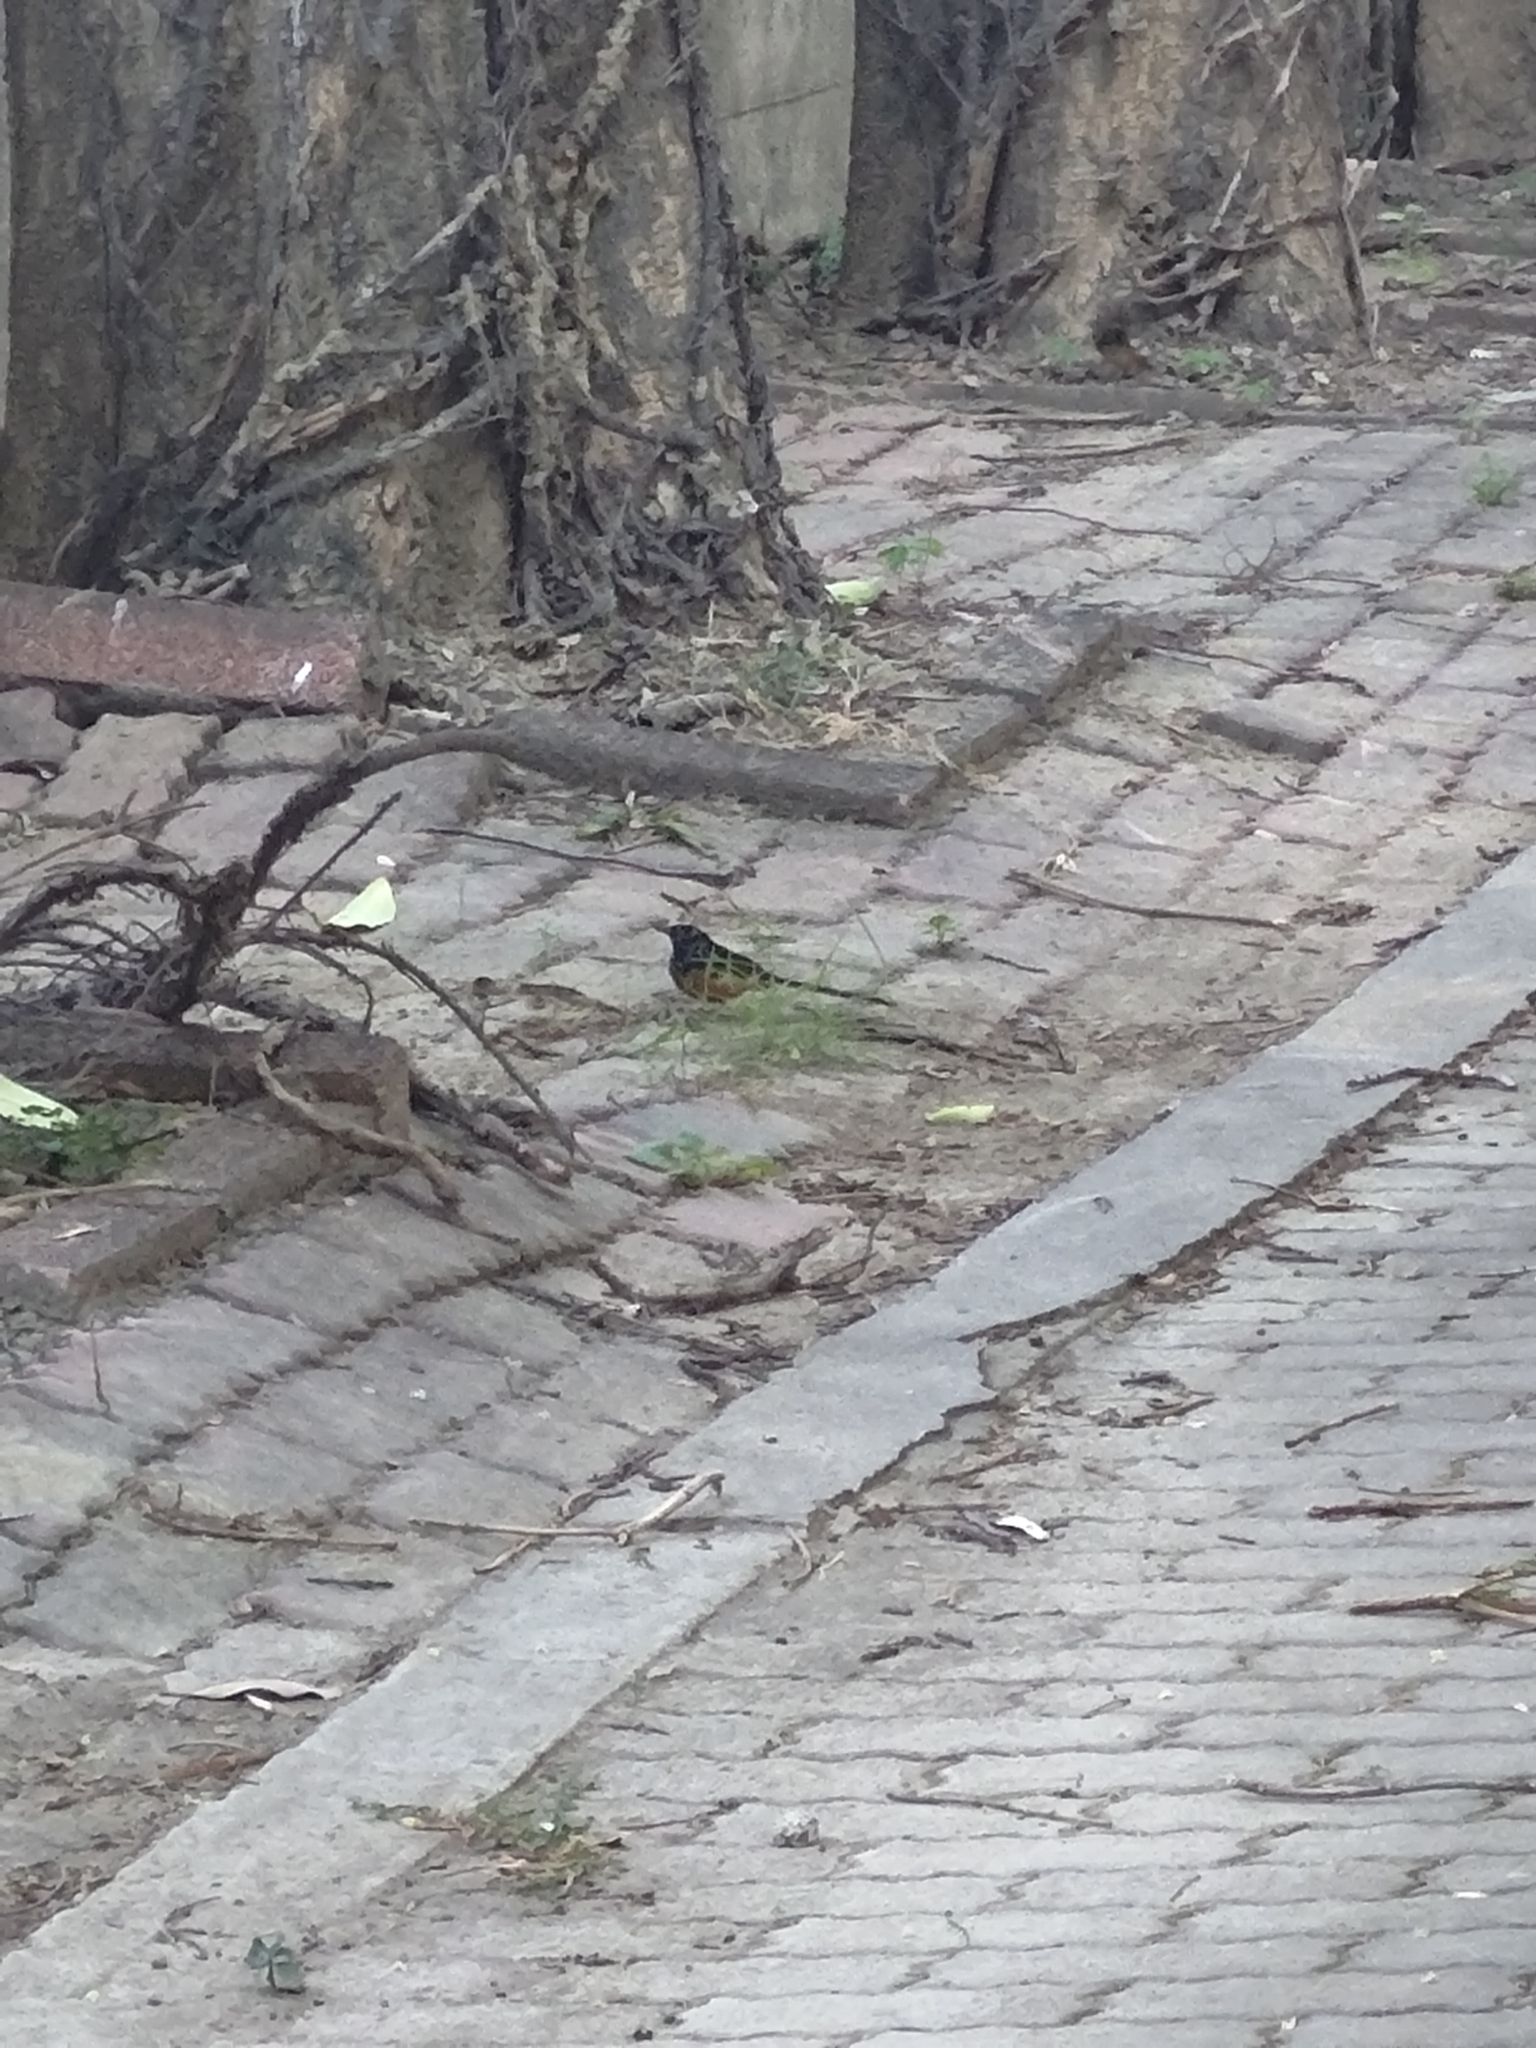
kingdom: Animalia
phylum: Chordata
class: Aves
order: Passeriformes
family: Muscicapidae
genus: Copsychus
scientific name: Copsychus malabaricus
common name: White-rumped shama
